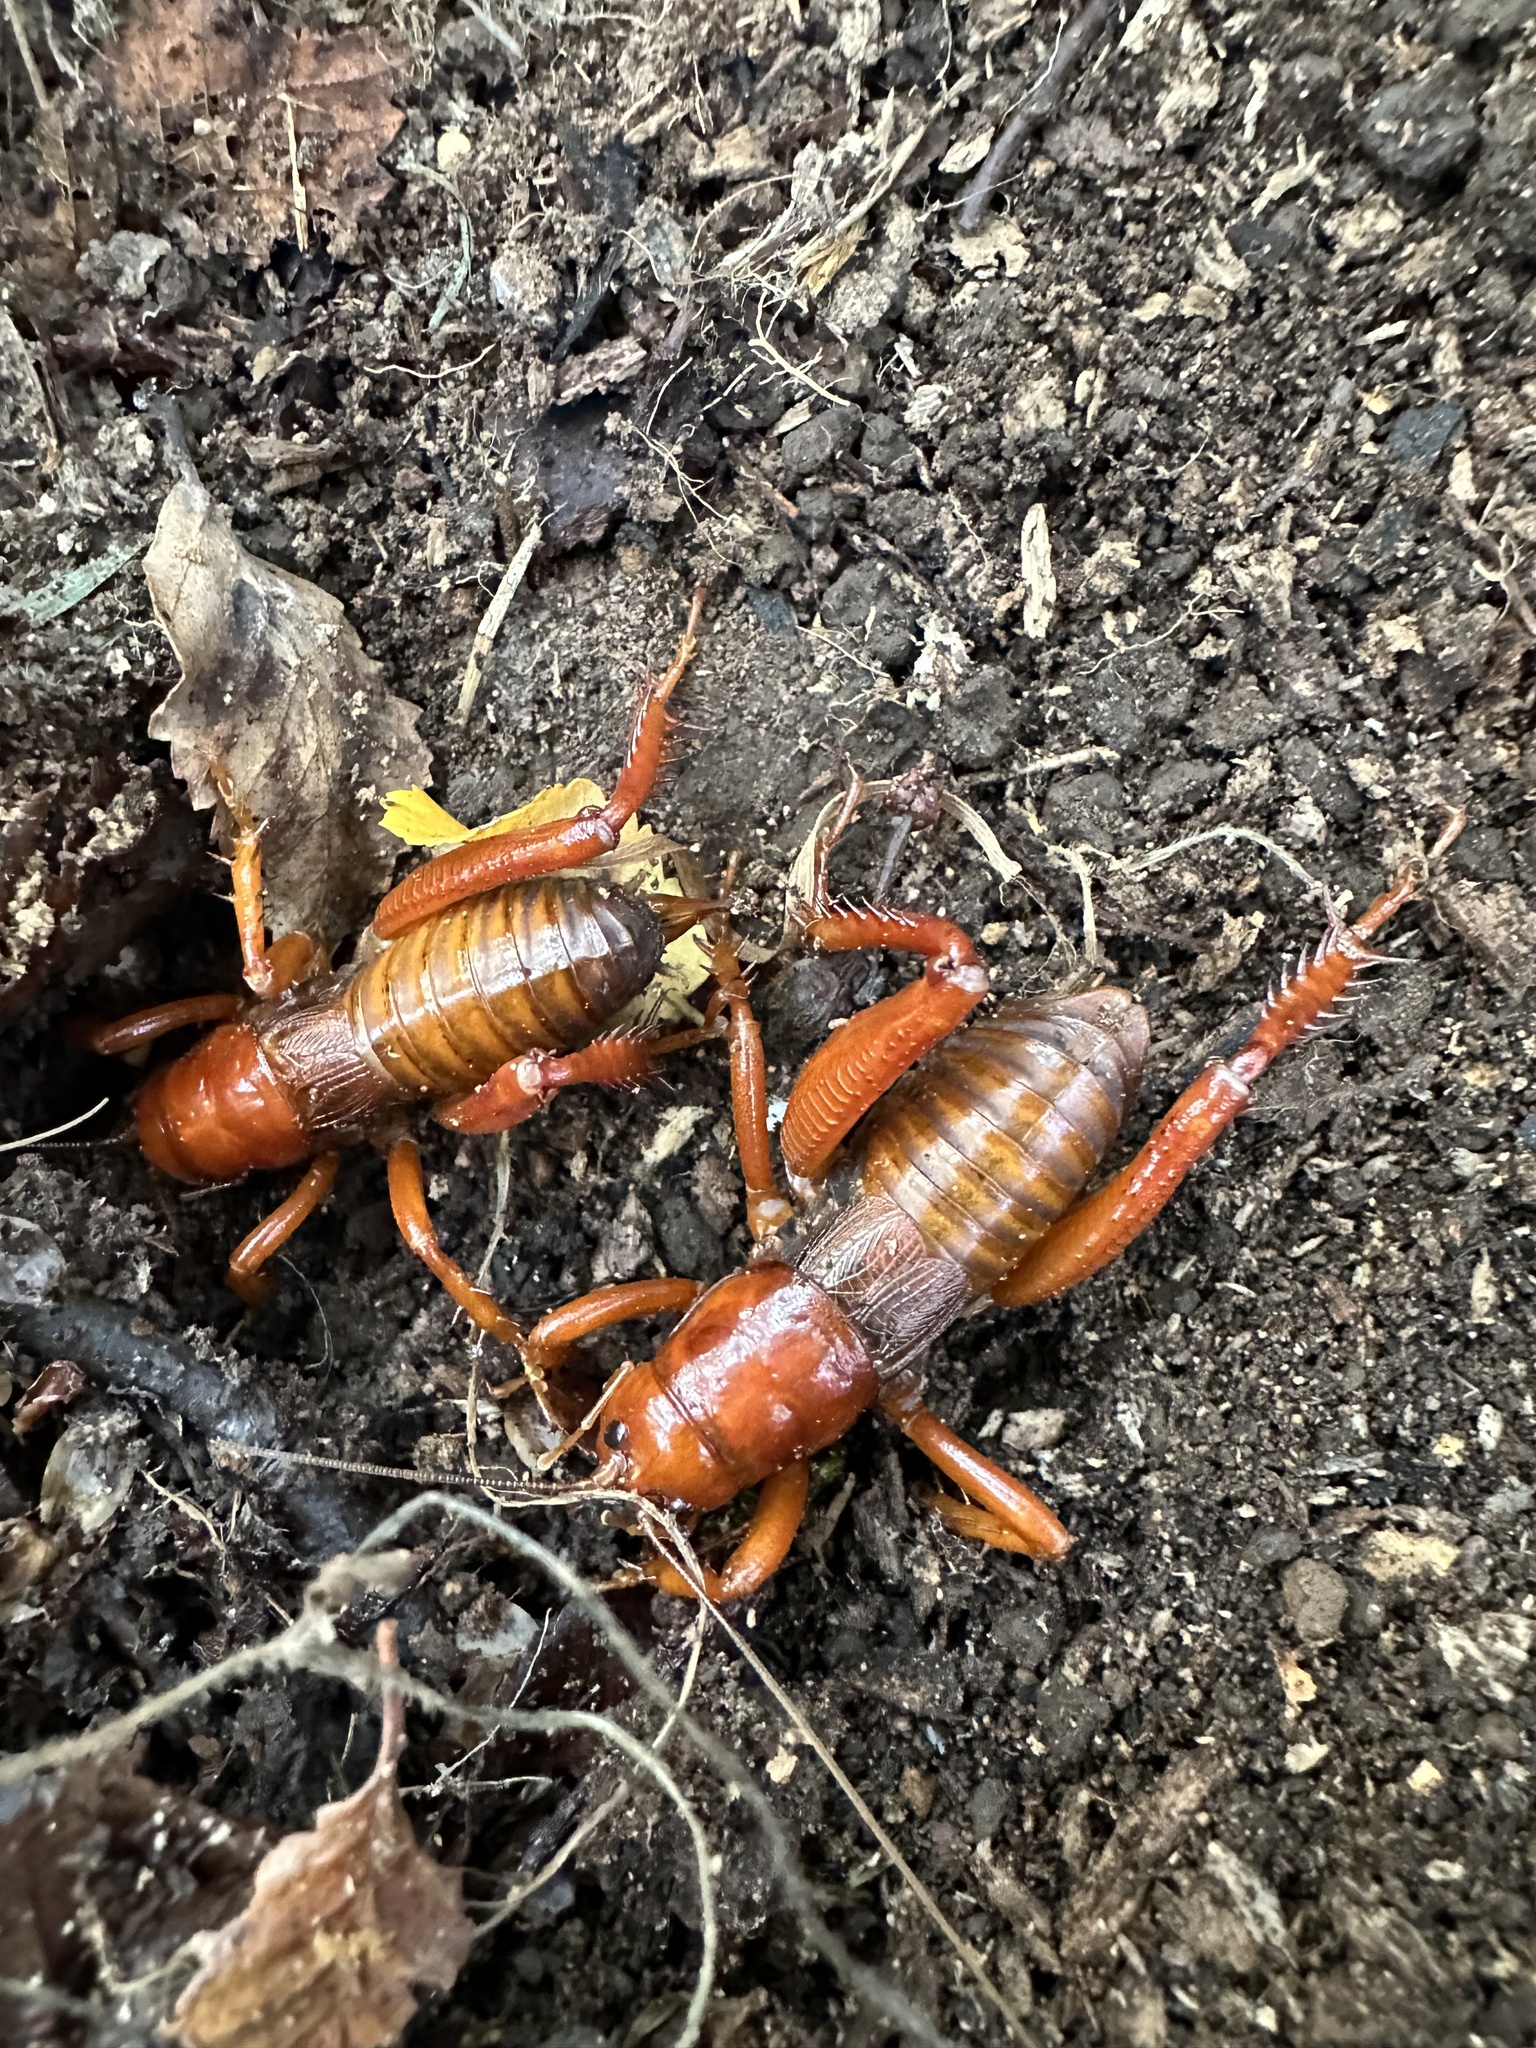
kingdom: Animalia
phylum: Arthropoda
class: Insecta
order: Orthoptera
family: Anostostomatidae
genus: Cratomelus
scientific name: Cratomelus armatus
